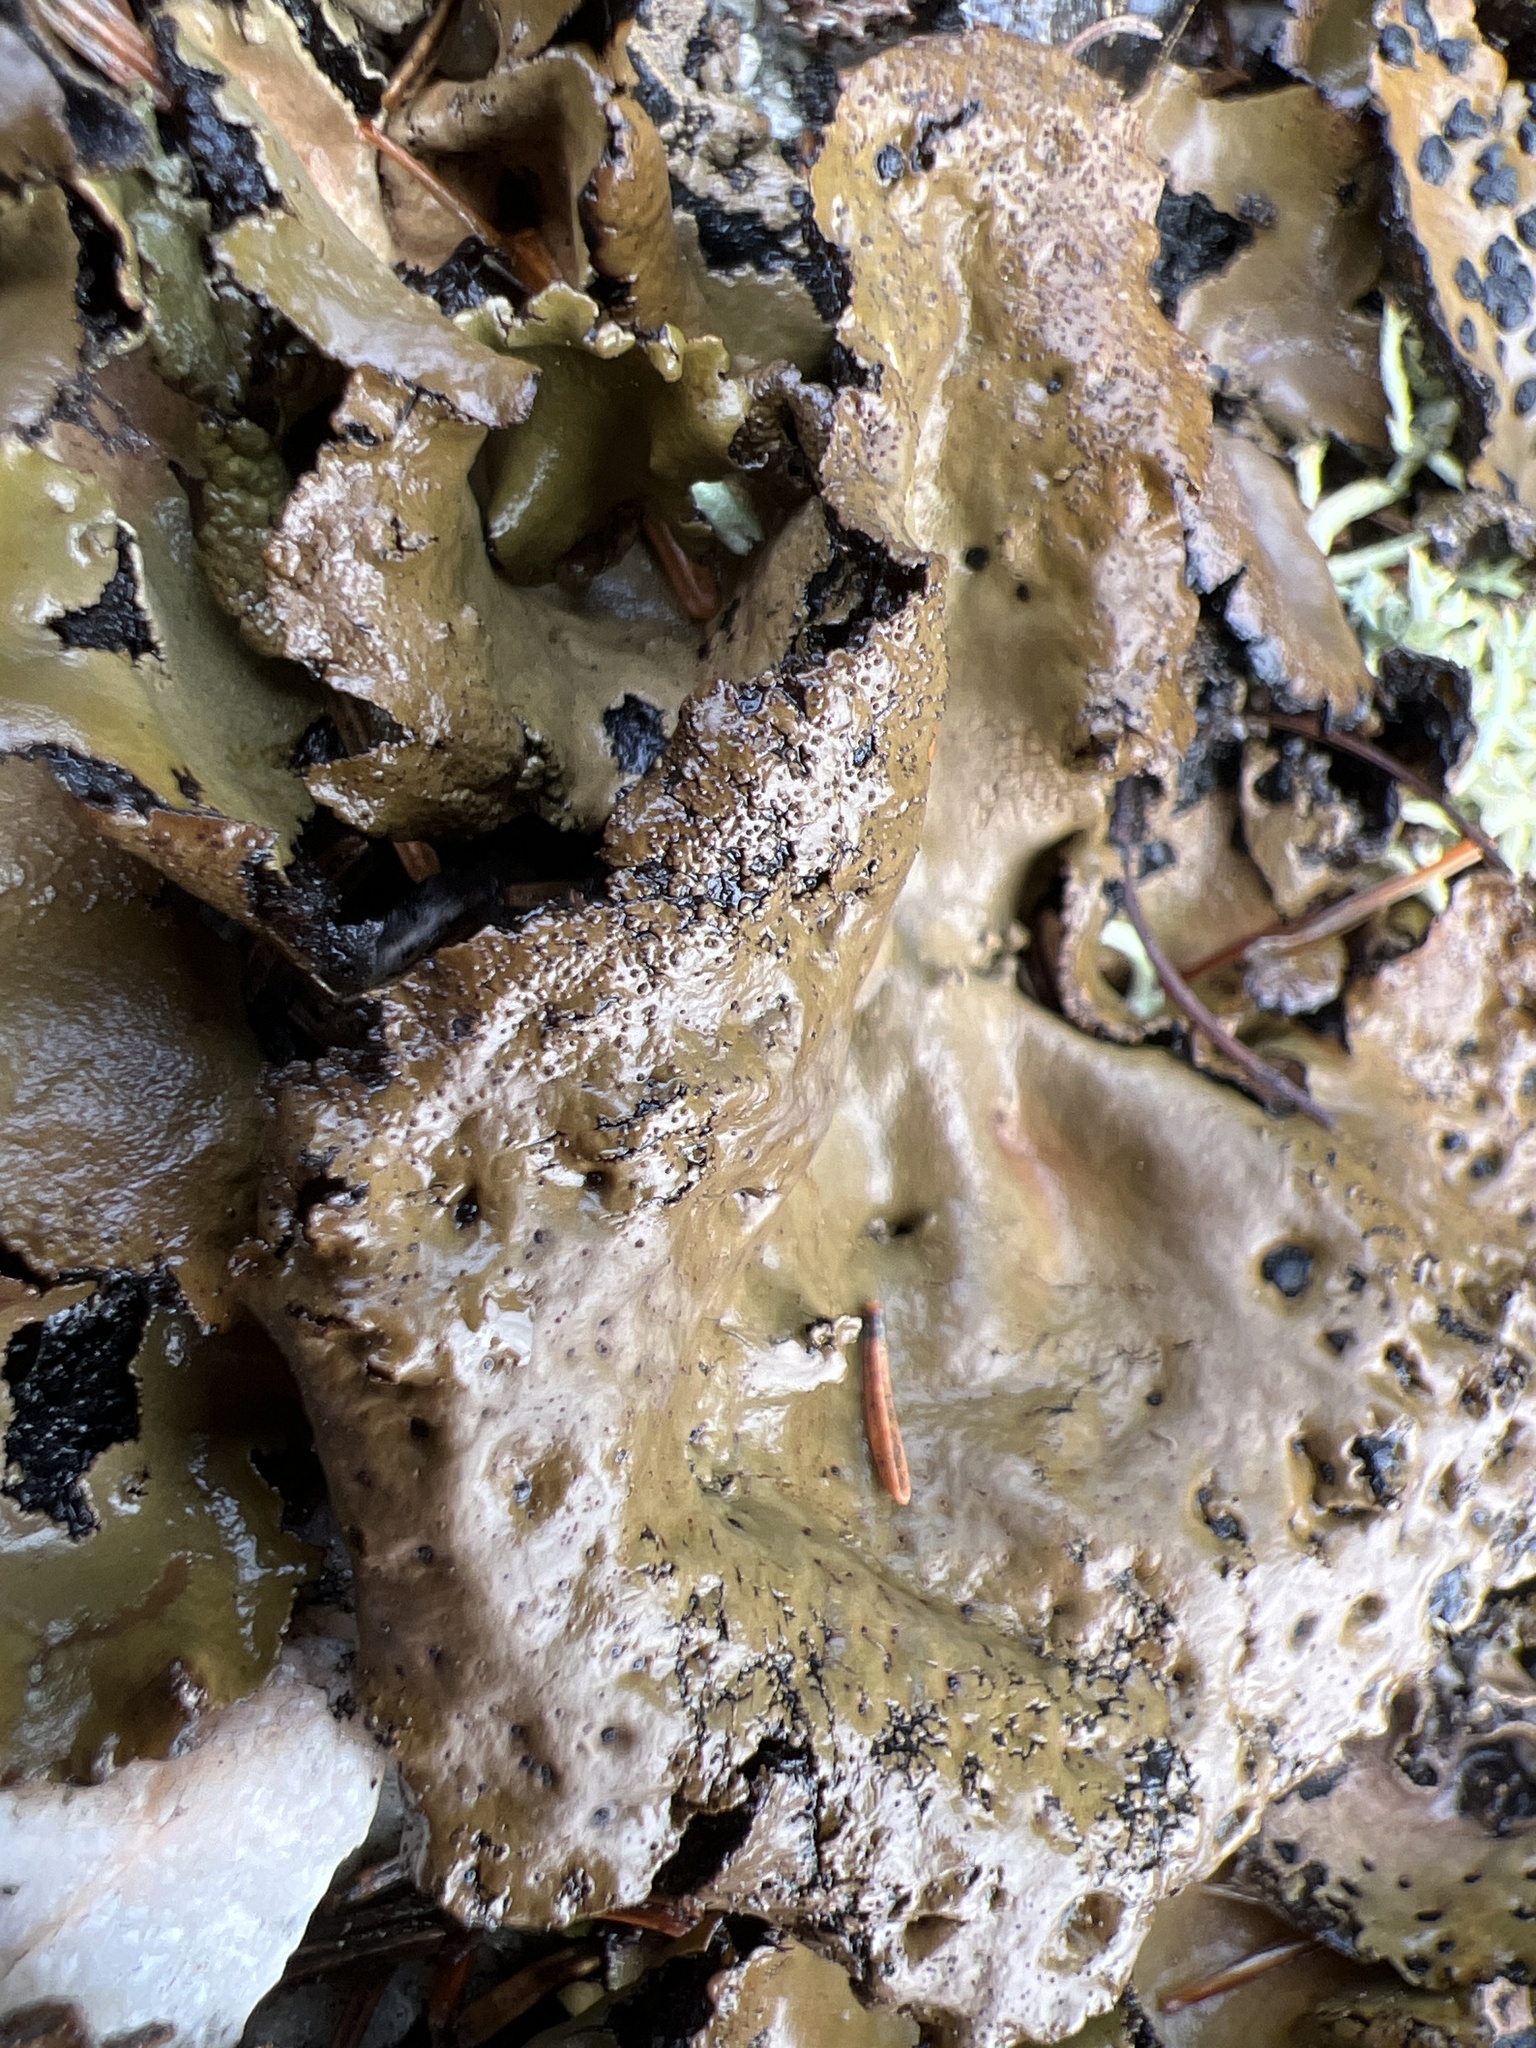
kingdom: Fungi
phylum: Ascomycota
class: Lecanoromycetes
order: Umbilicariales
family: Umbilicariaceae
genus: Umbilicaria
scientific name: Umbilicaria muhlenbergii
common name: Lesser rocktripe
